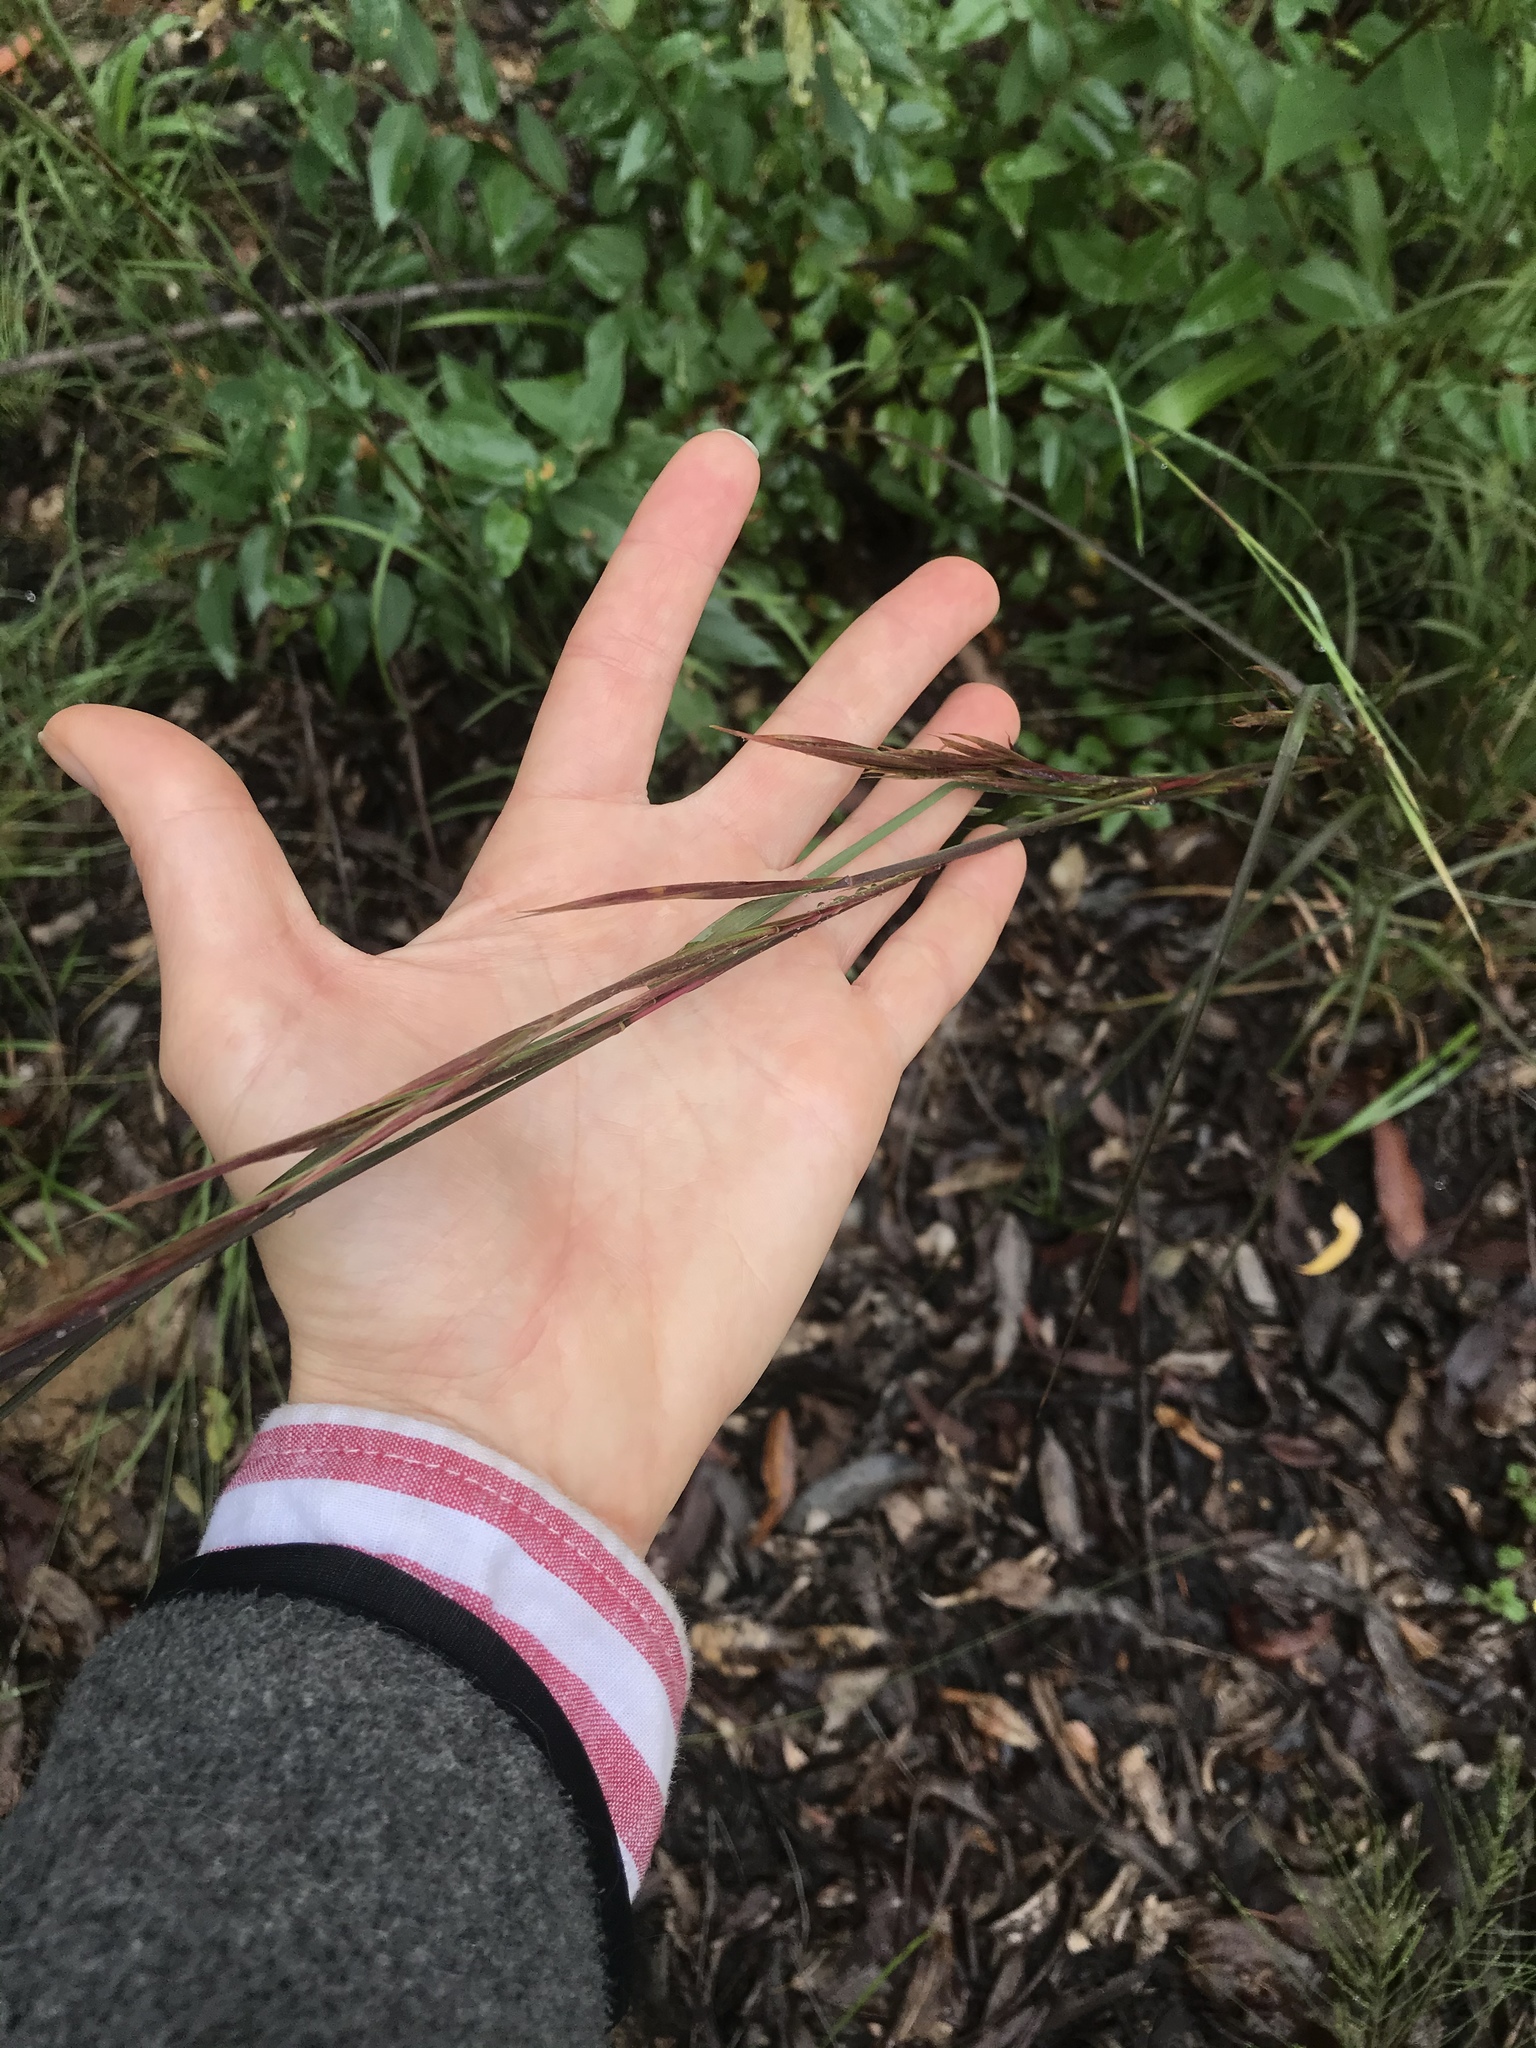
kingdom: Plantae
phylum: Tracheophyta
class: Liliopsida
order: Poales
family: Poaceae
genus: Andropogon
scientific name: Andropogon virginicus
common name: Broomsedge bluestem
